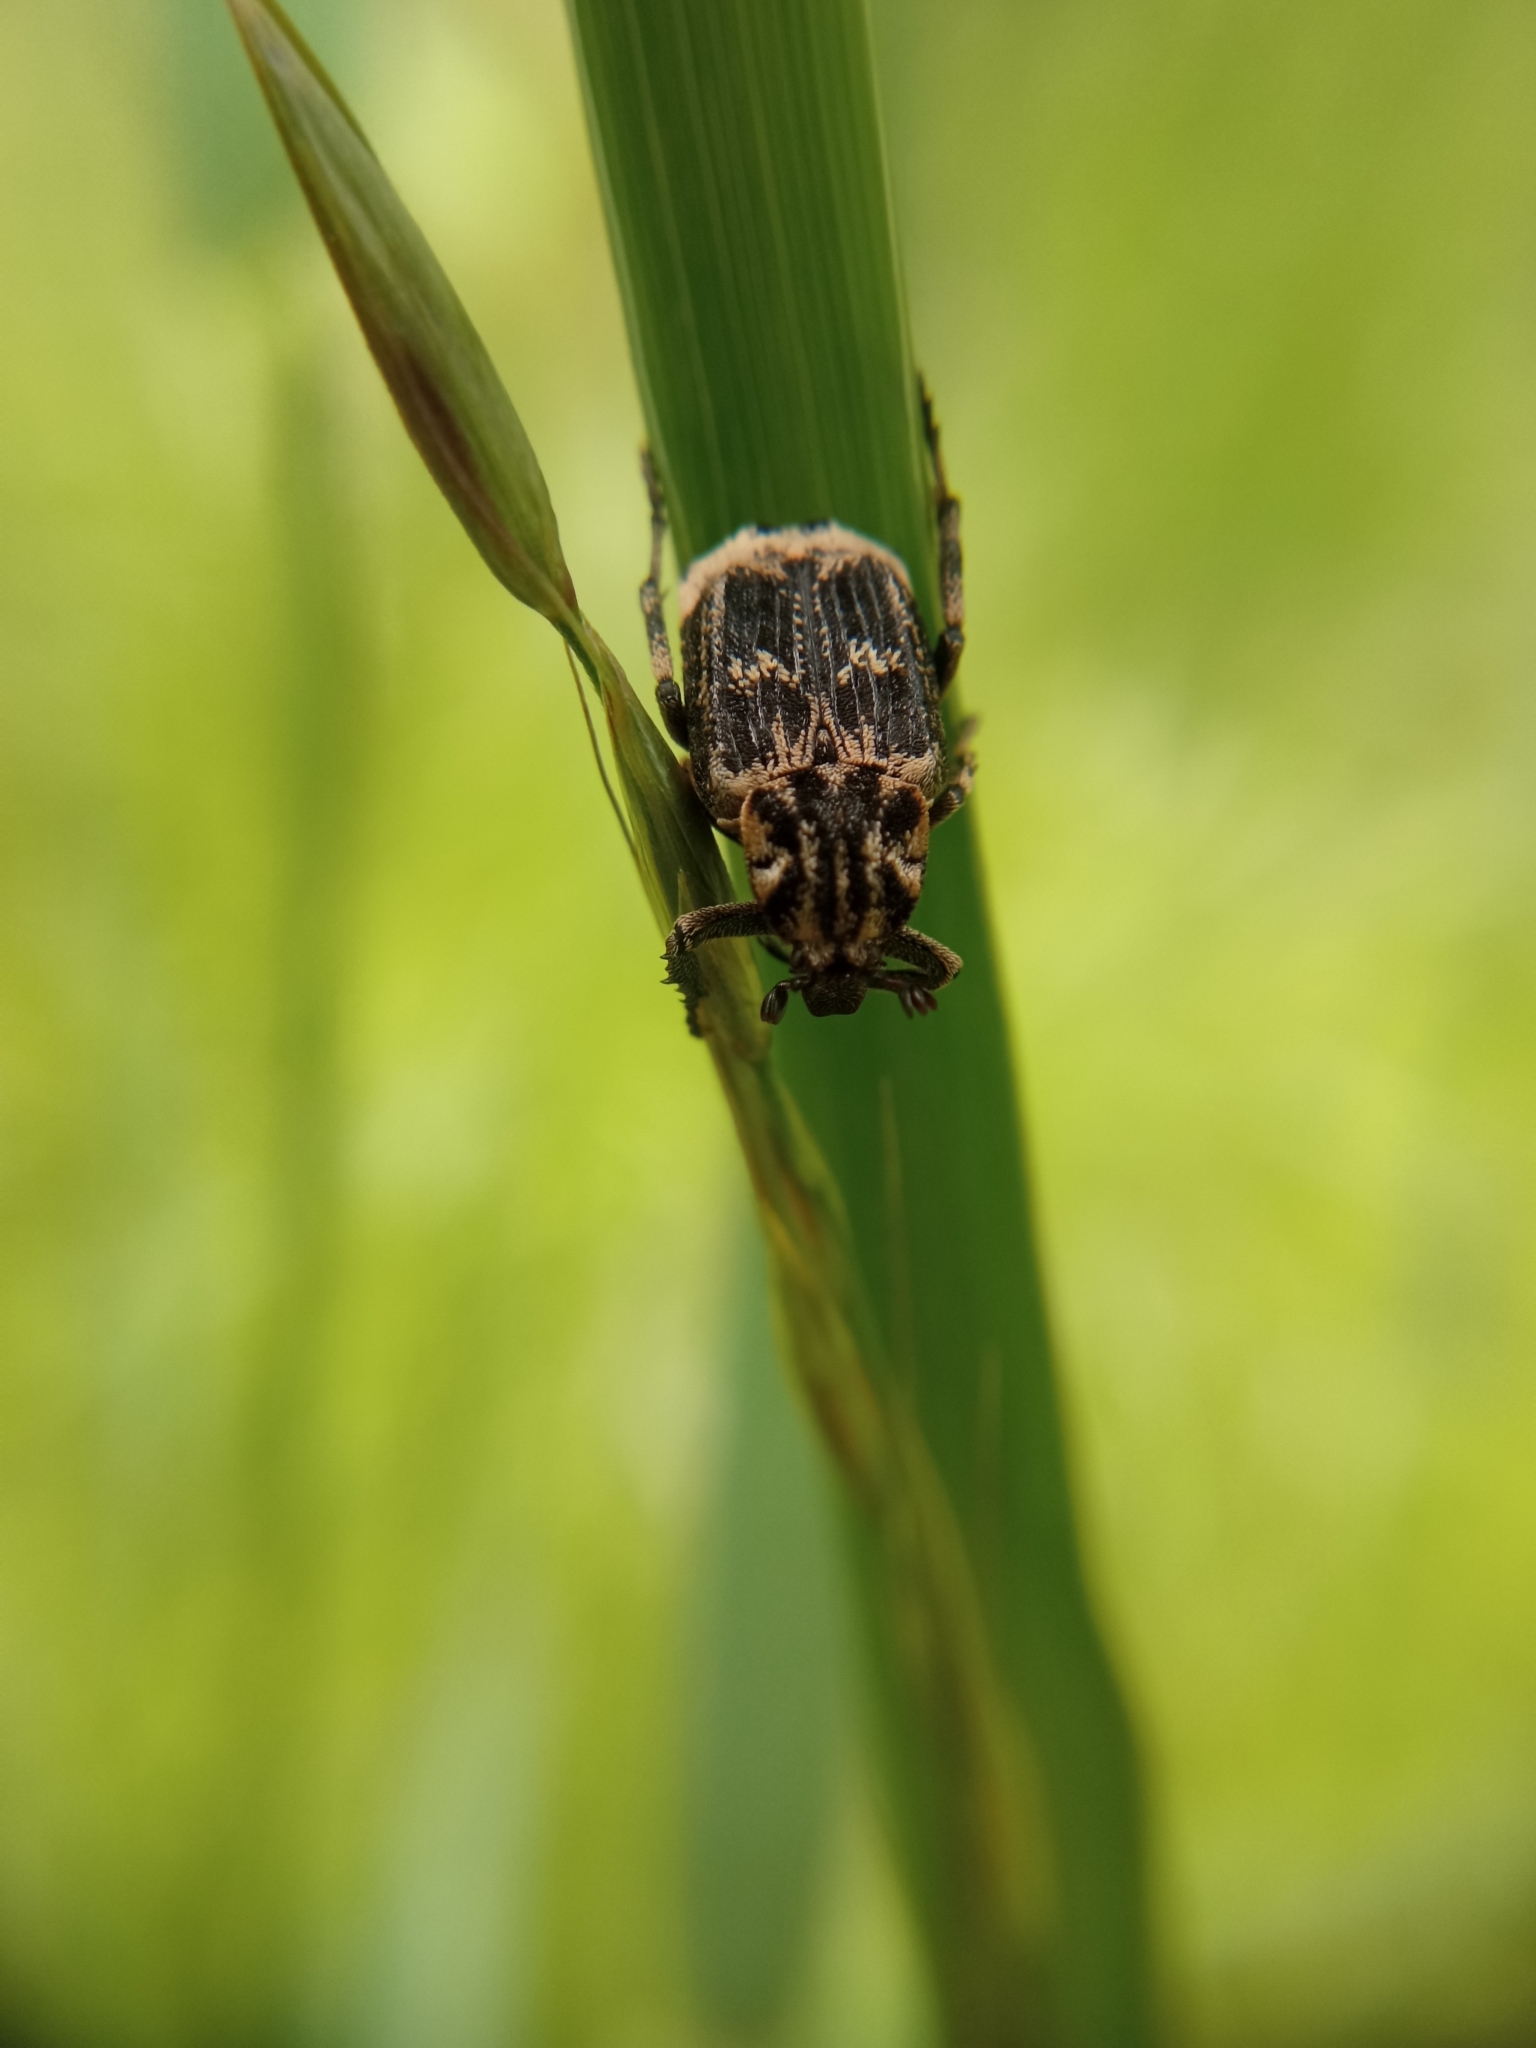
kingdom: Animalia
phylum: Arthropoda
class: Insecta
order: Coleoptera
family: Scarabaeidae
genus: Valgus
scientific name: Valgus hemipterus
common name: Bug flower chafer
